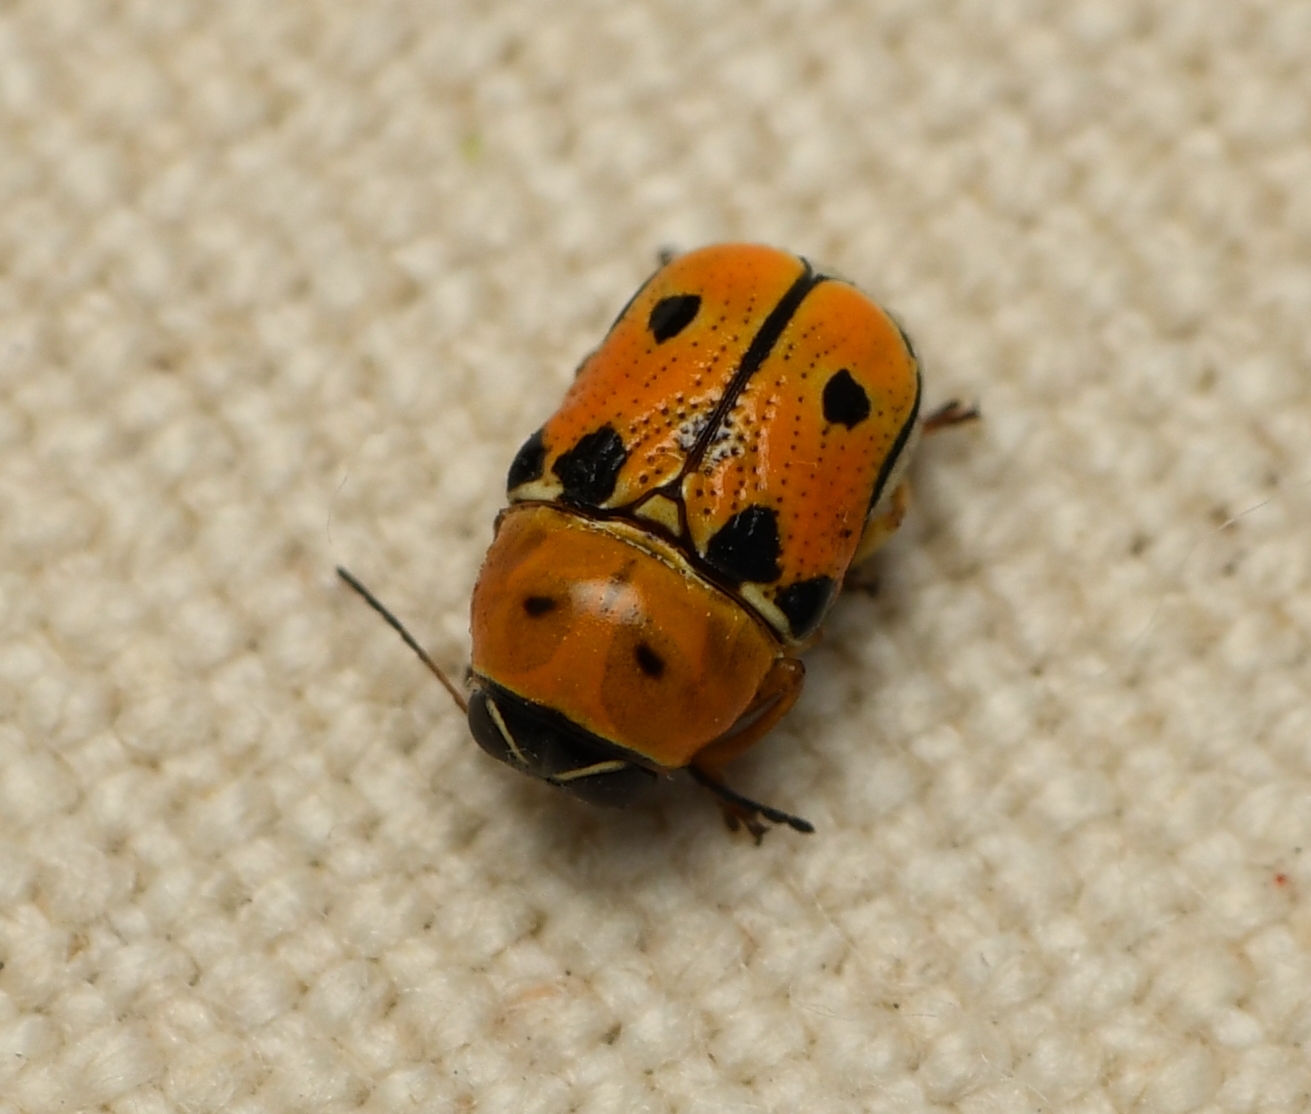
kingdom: Animalia
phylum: Arthropoda
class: Insecta
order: Coleoptera
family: Chrysomelidae
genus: Griburius
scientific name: Griburius larvatus
